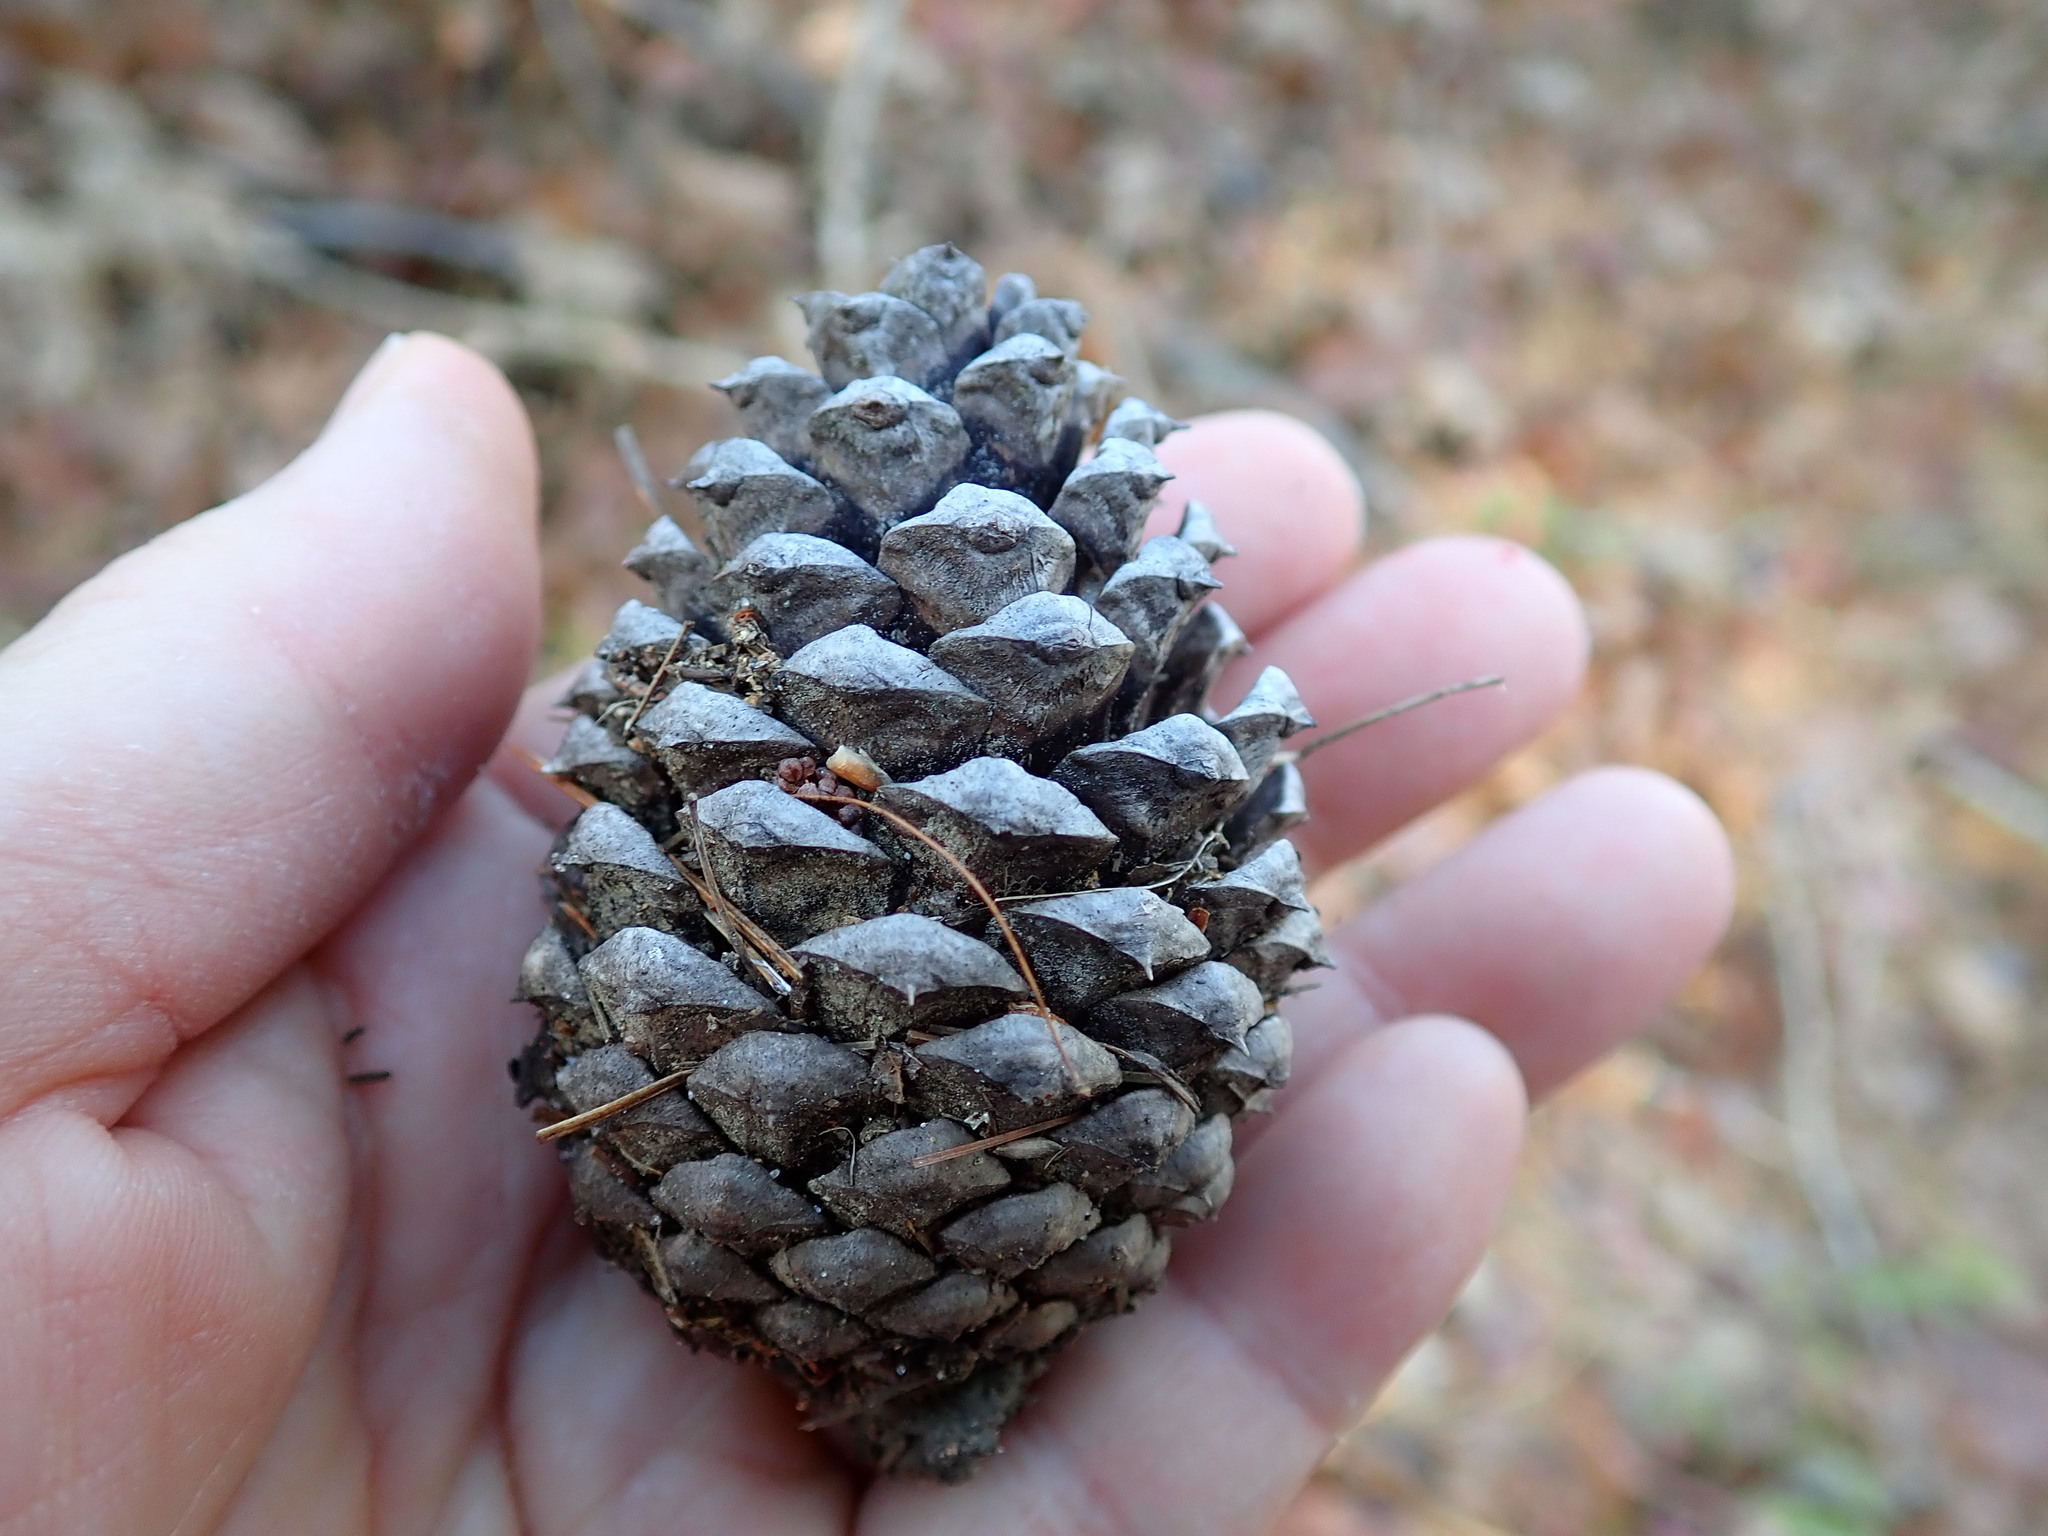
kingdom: Plantae
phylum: Tracheophyta
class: Pinopsida
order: Pinales
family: Pinaceae
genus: Pinus
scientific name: Pinus rigida
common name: Pitch pine
